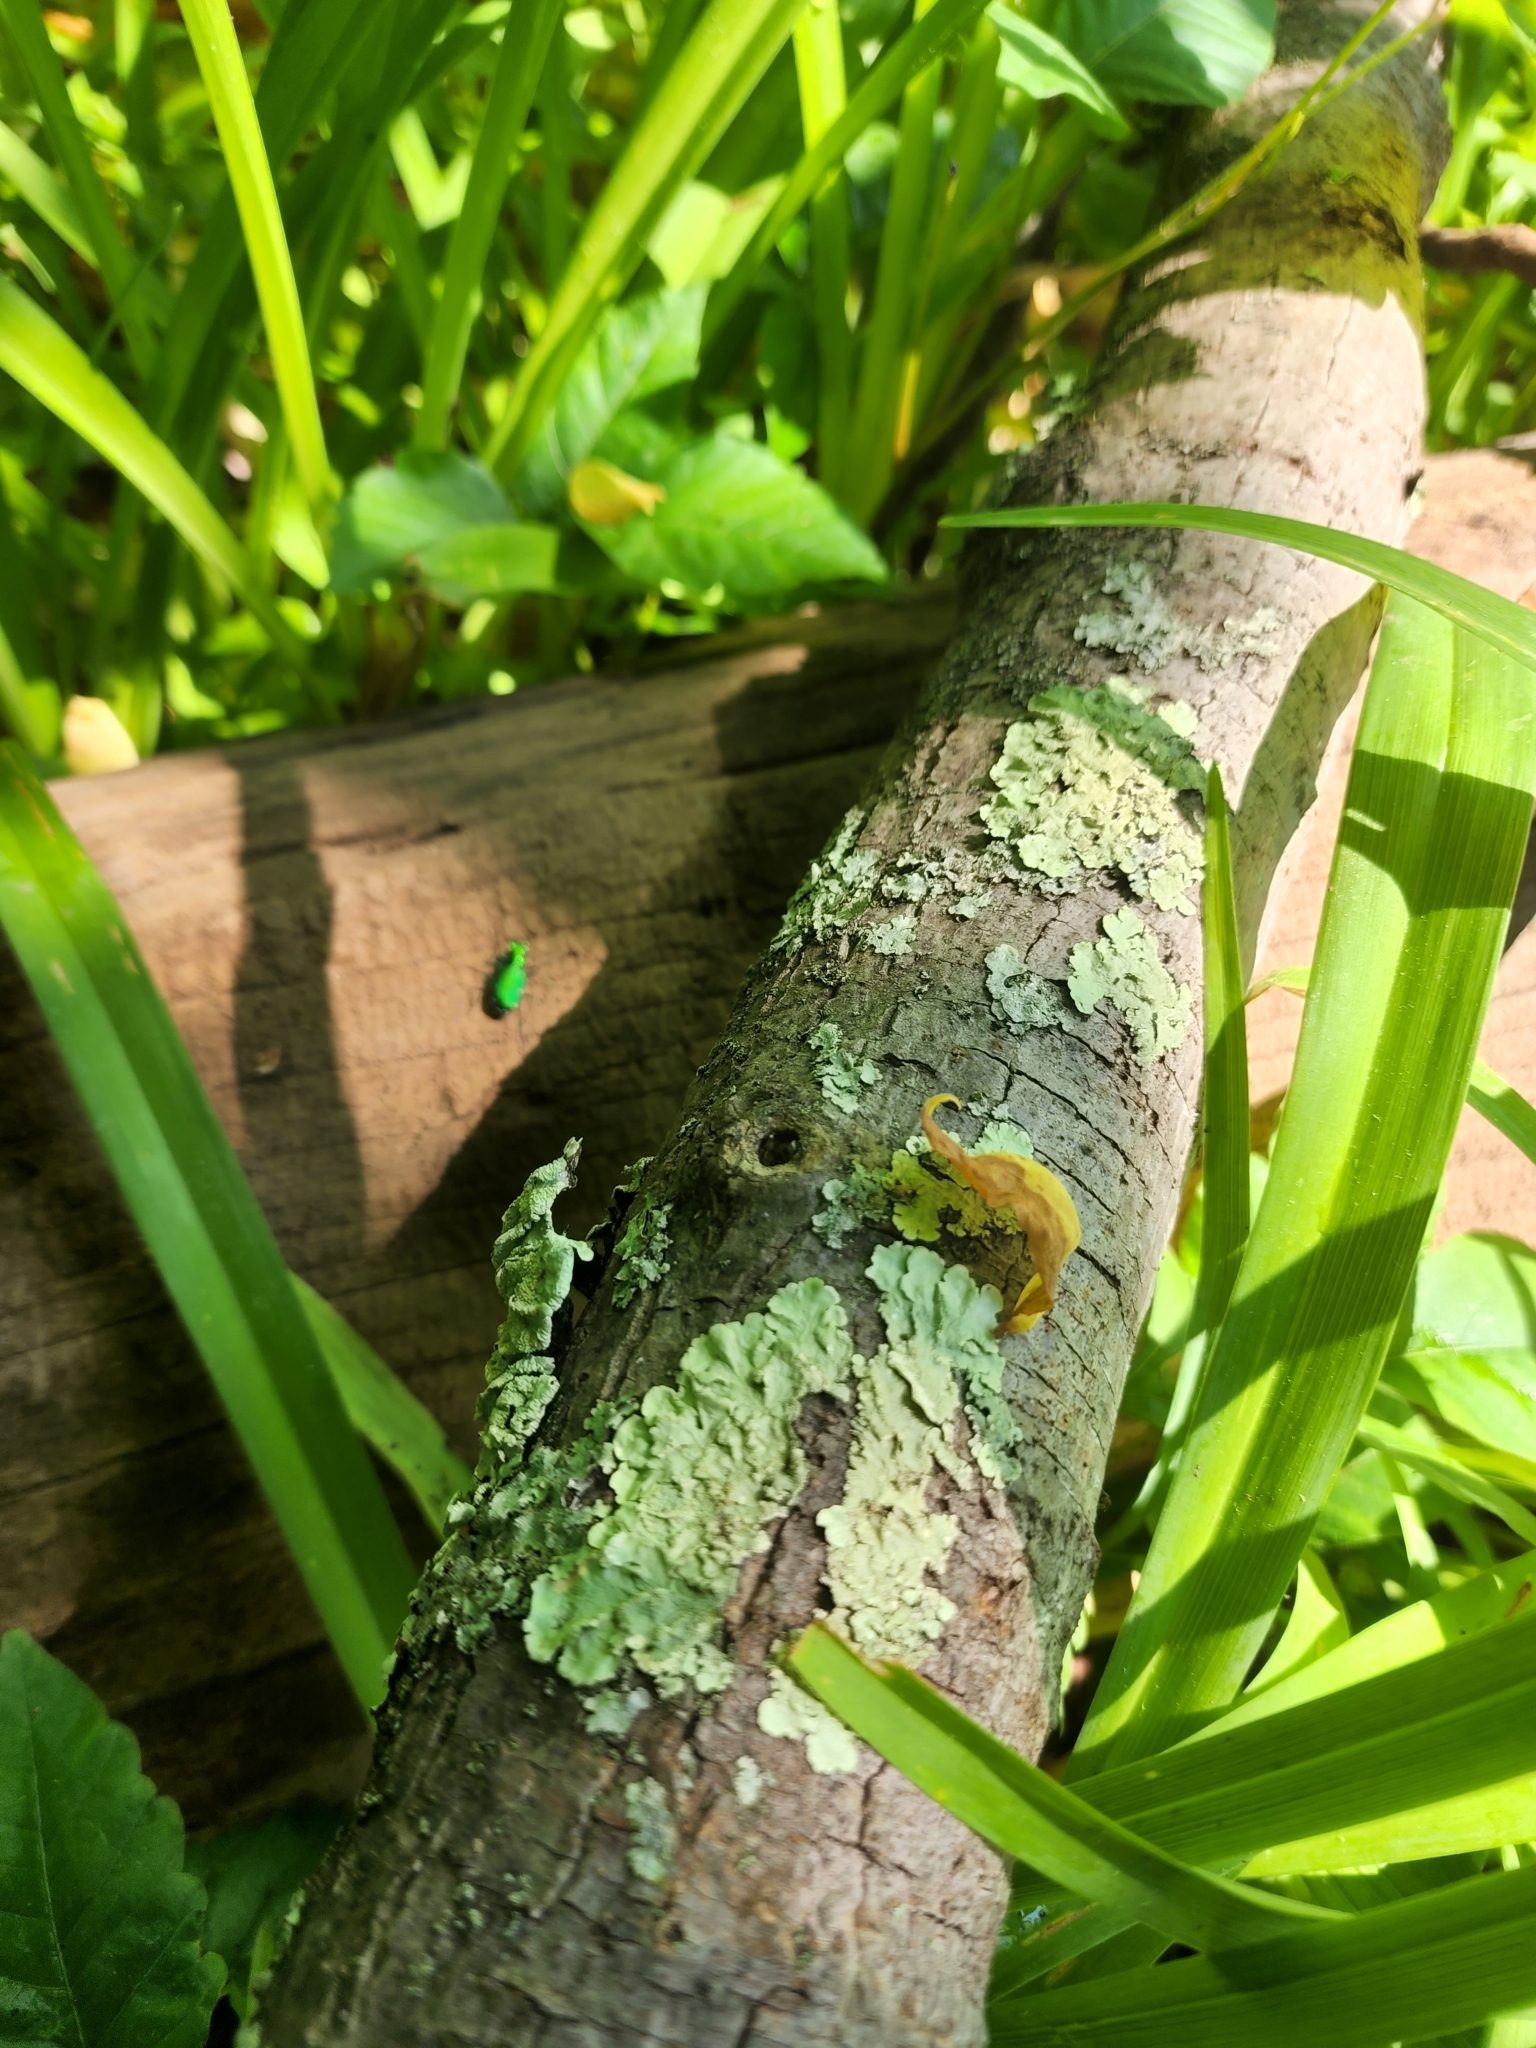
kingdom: Animalia
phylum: Arthropoda
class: Insecta
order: Coleoptera
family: Carabidae
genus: Cicindela
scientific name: Cicindela sexguttata
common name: Six-spotted tiger beetle
